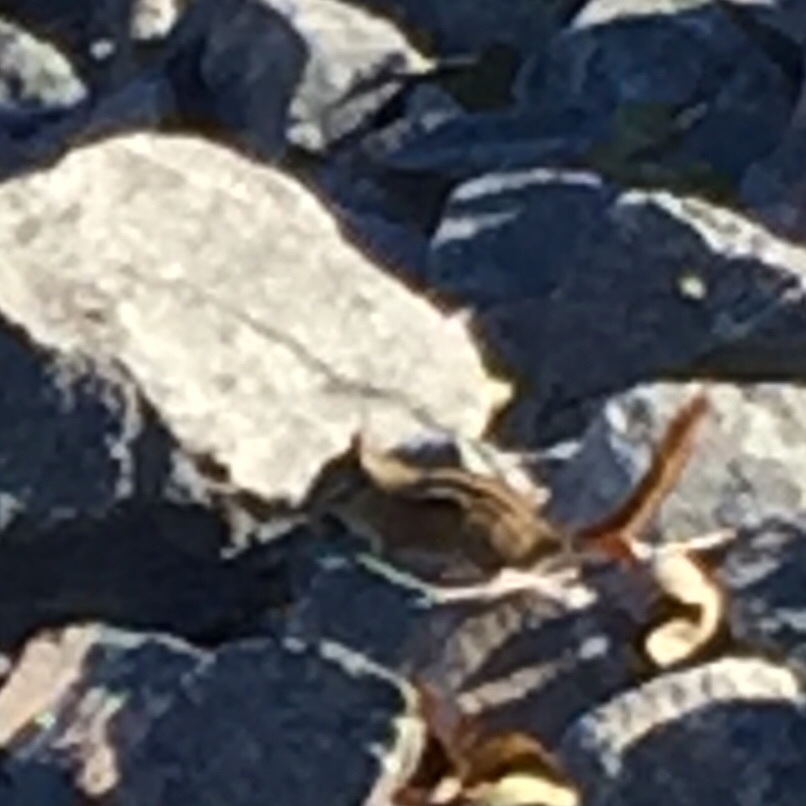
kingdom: Animalia
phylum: Chordata
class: Mammalia
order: Rodentia
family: Sciuridae
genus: Tamias
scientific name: Tamias minimus
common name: Least chipmunk
